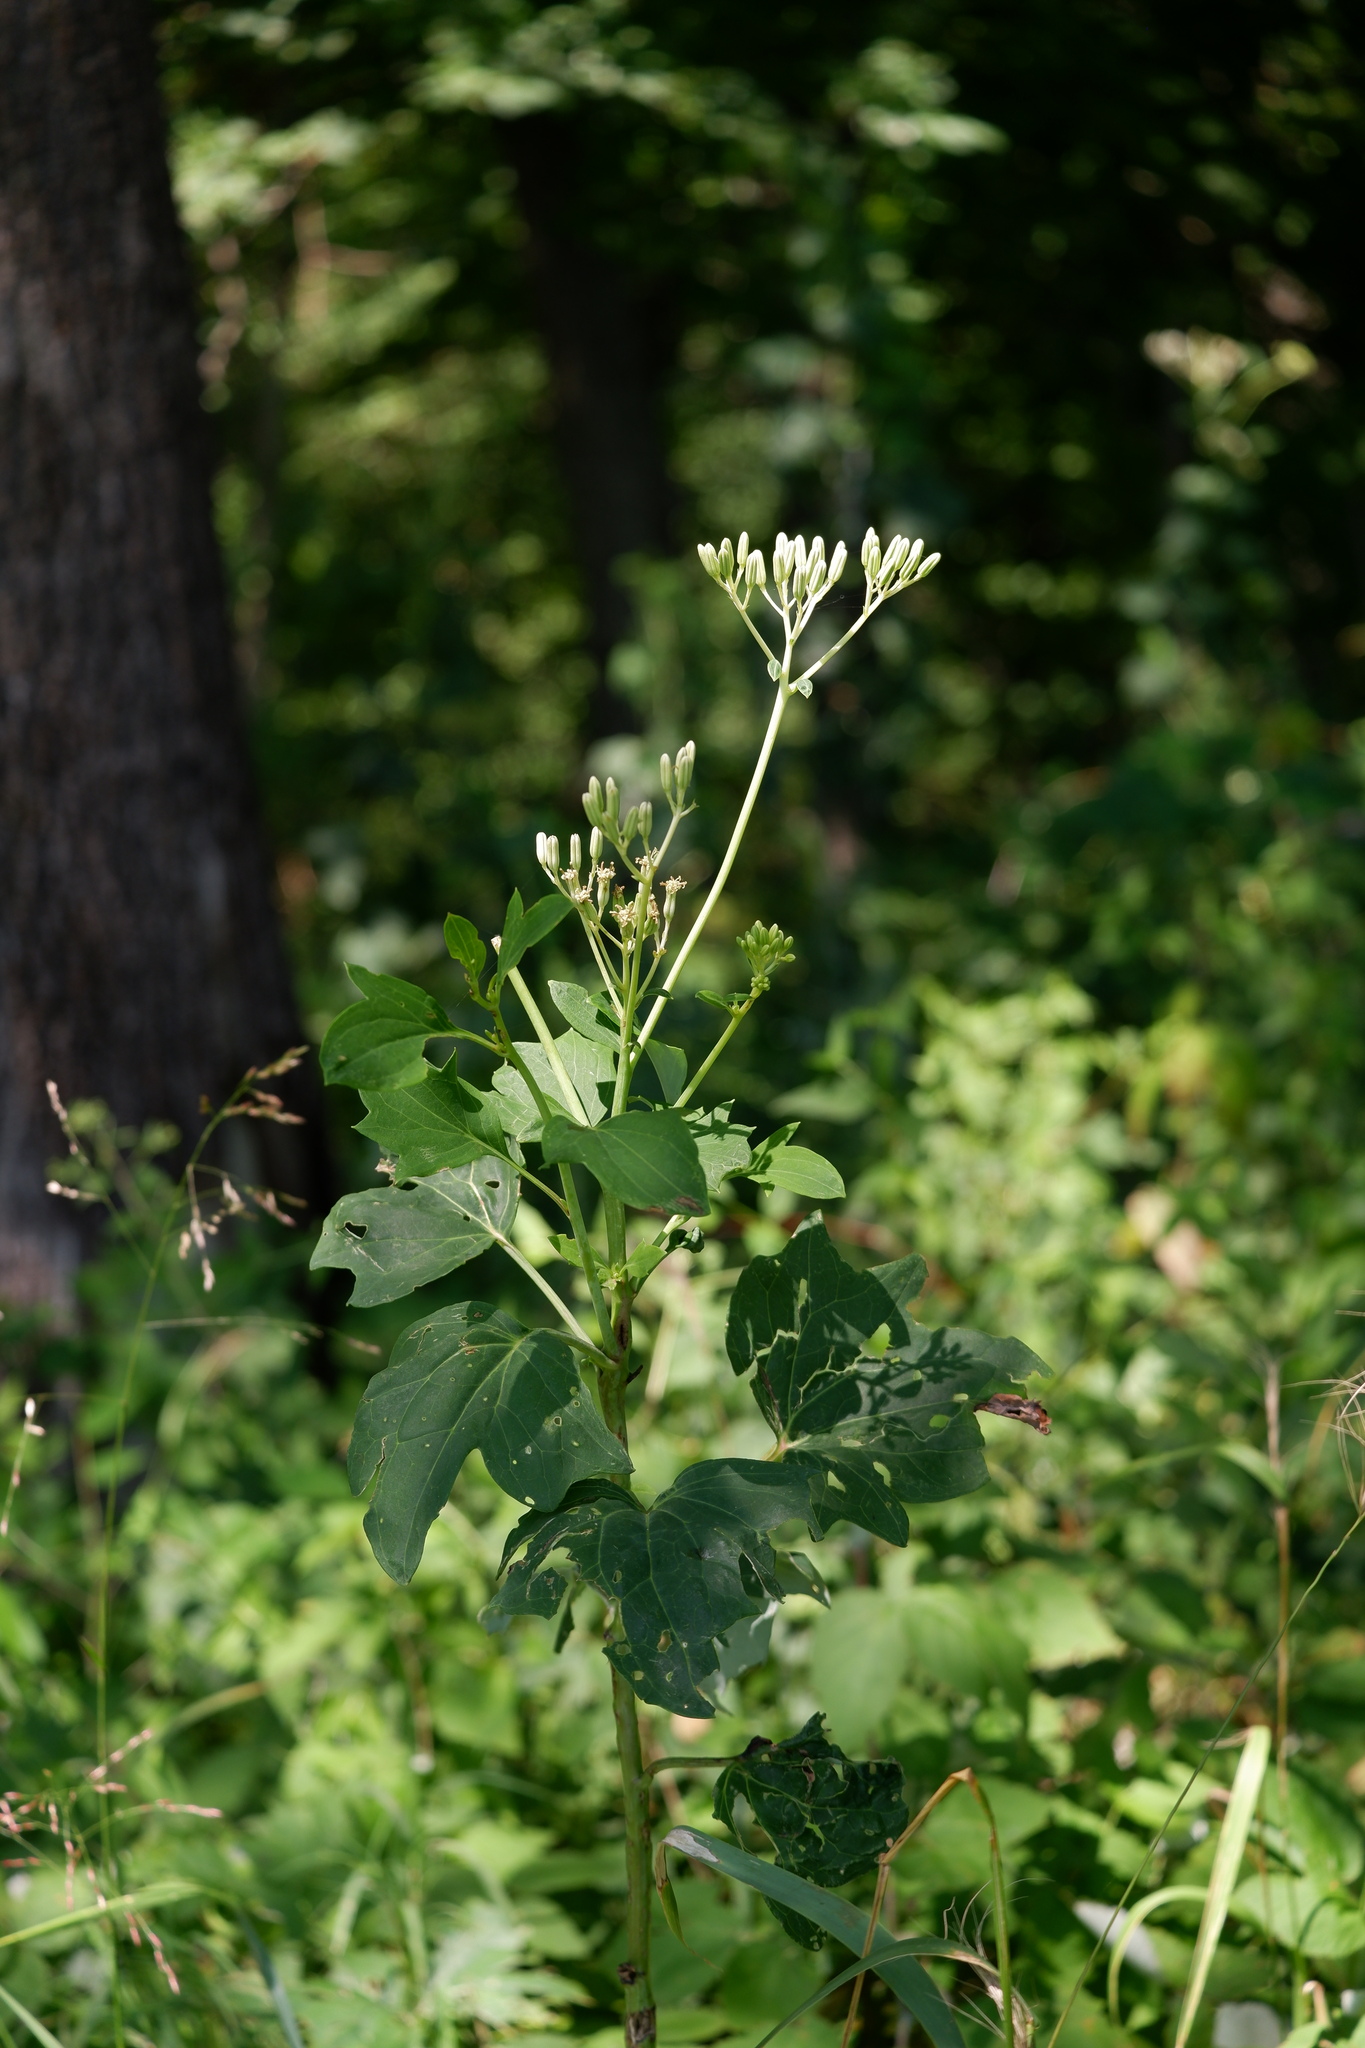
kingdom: Plantae
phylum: Tracheophyta
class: Magnoliopsida
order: Asterales
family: Asteraceae
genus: Arnoglossum
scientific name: Arnoglossum atriplicifolium
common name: Pale indian-plantain
